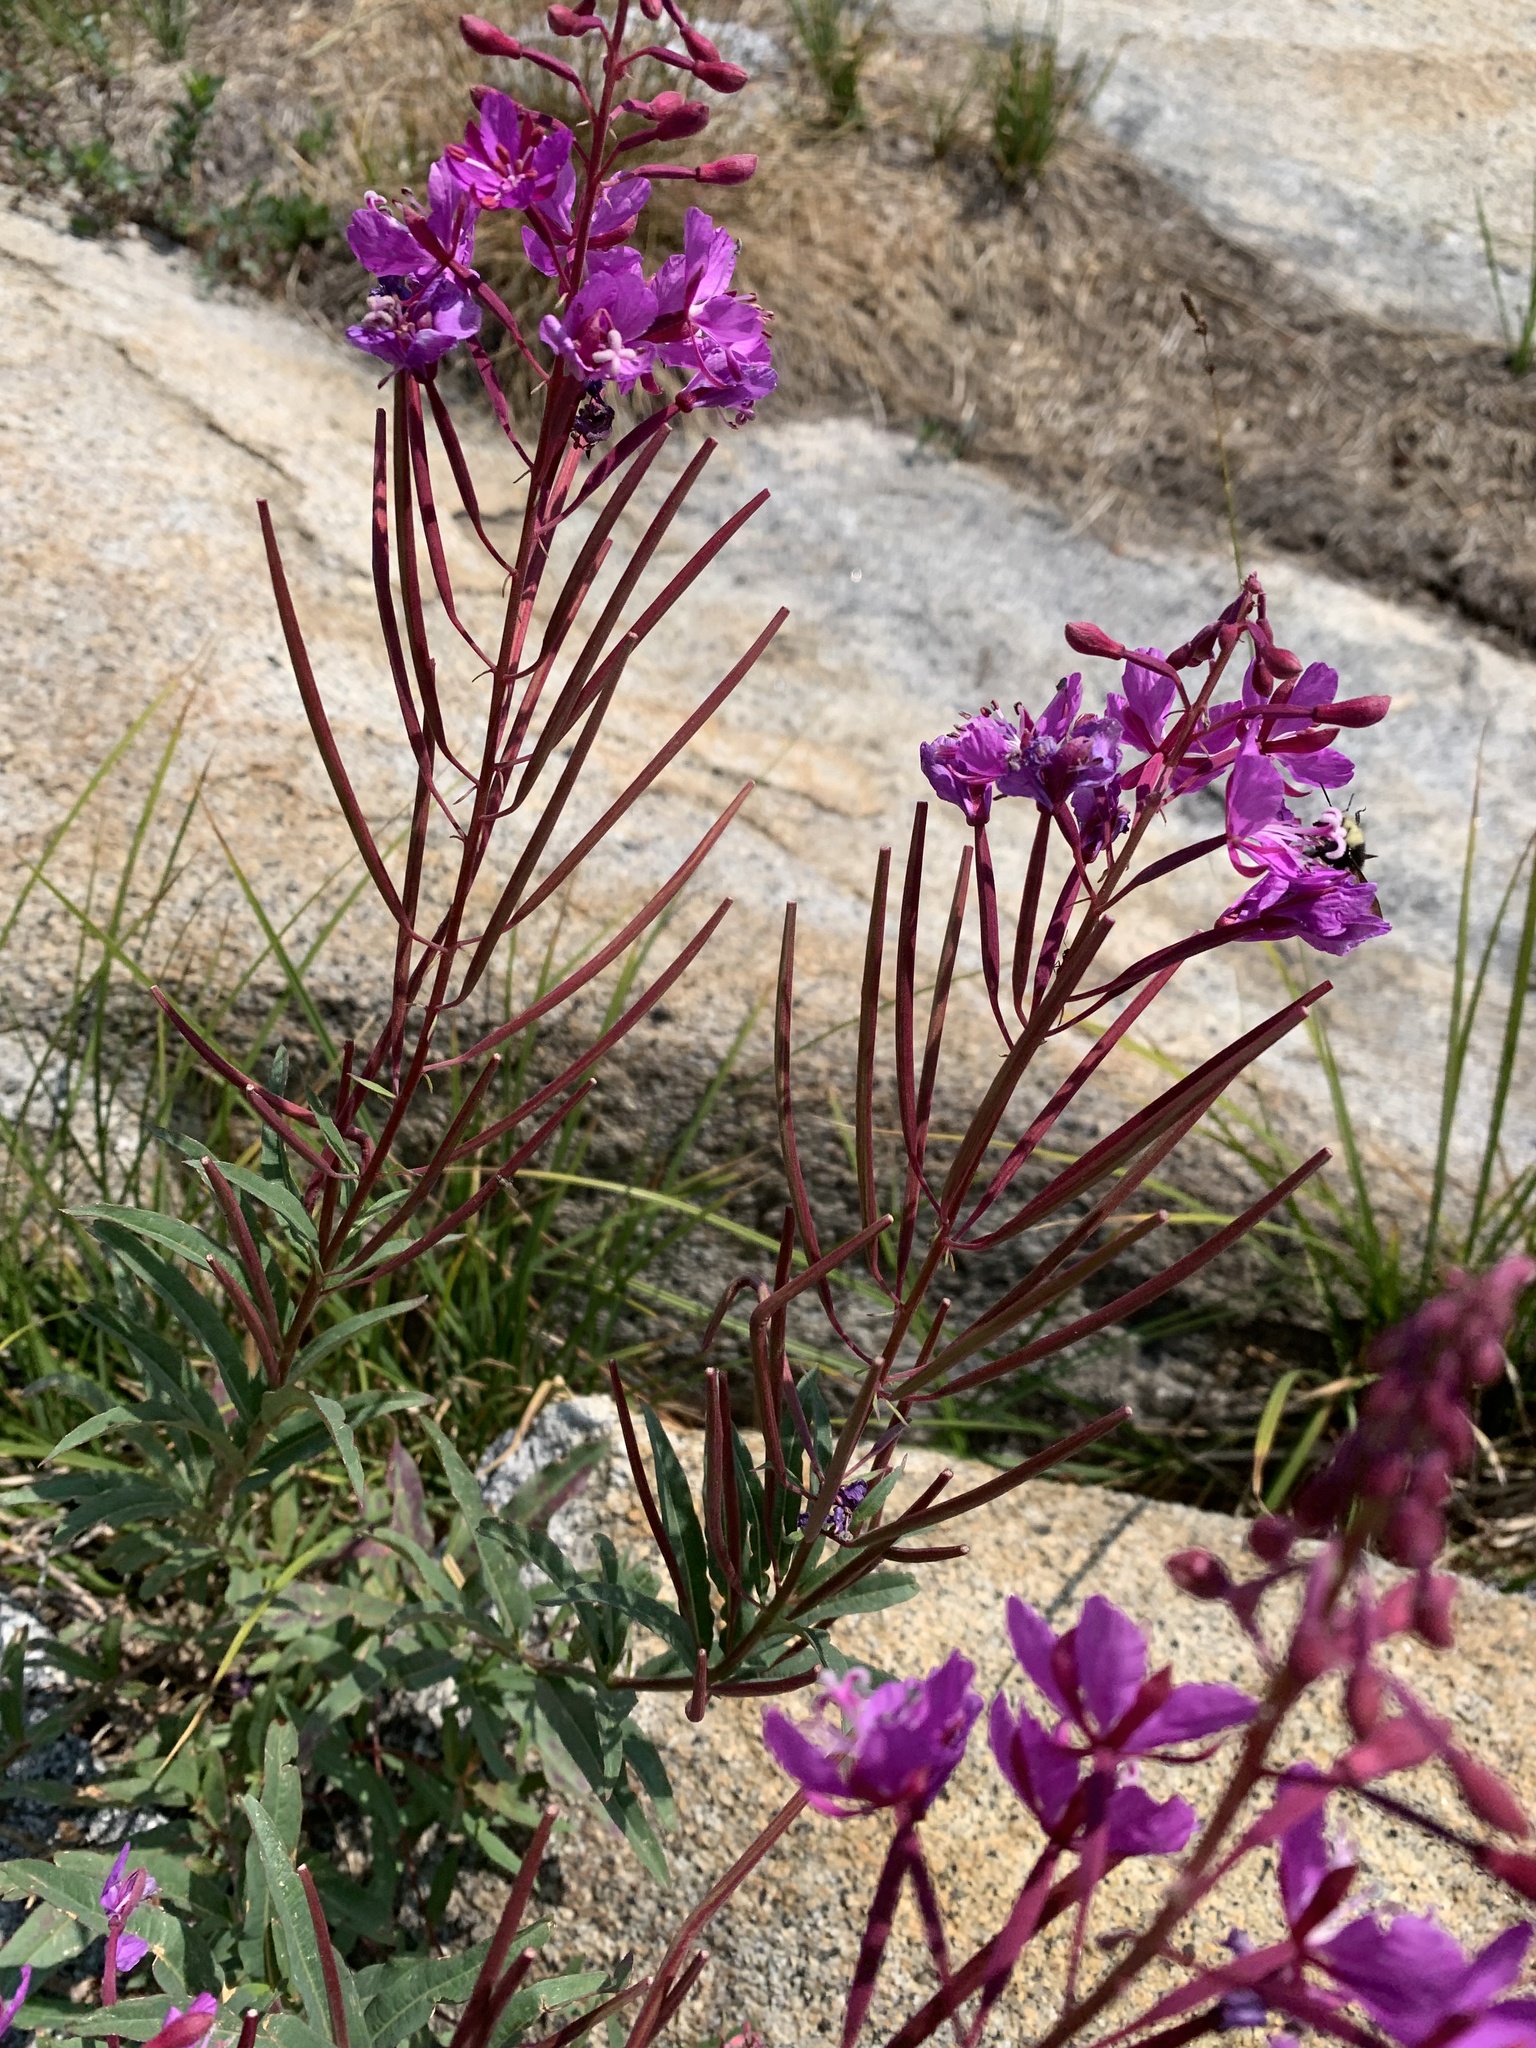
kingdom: Plantae
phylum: Tracheophyta
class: Magnoliopsida
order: Myrtales
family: Onagraceae
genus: Chamaenerion
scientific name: Chamaenerion angustifolium
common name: Fireweed
